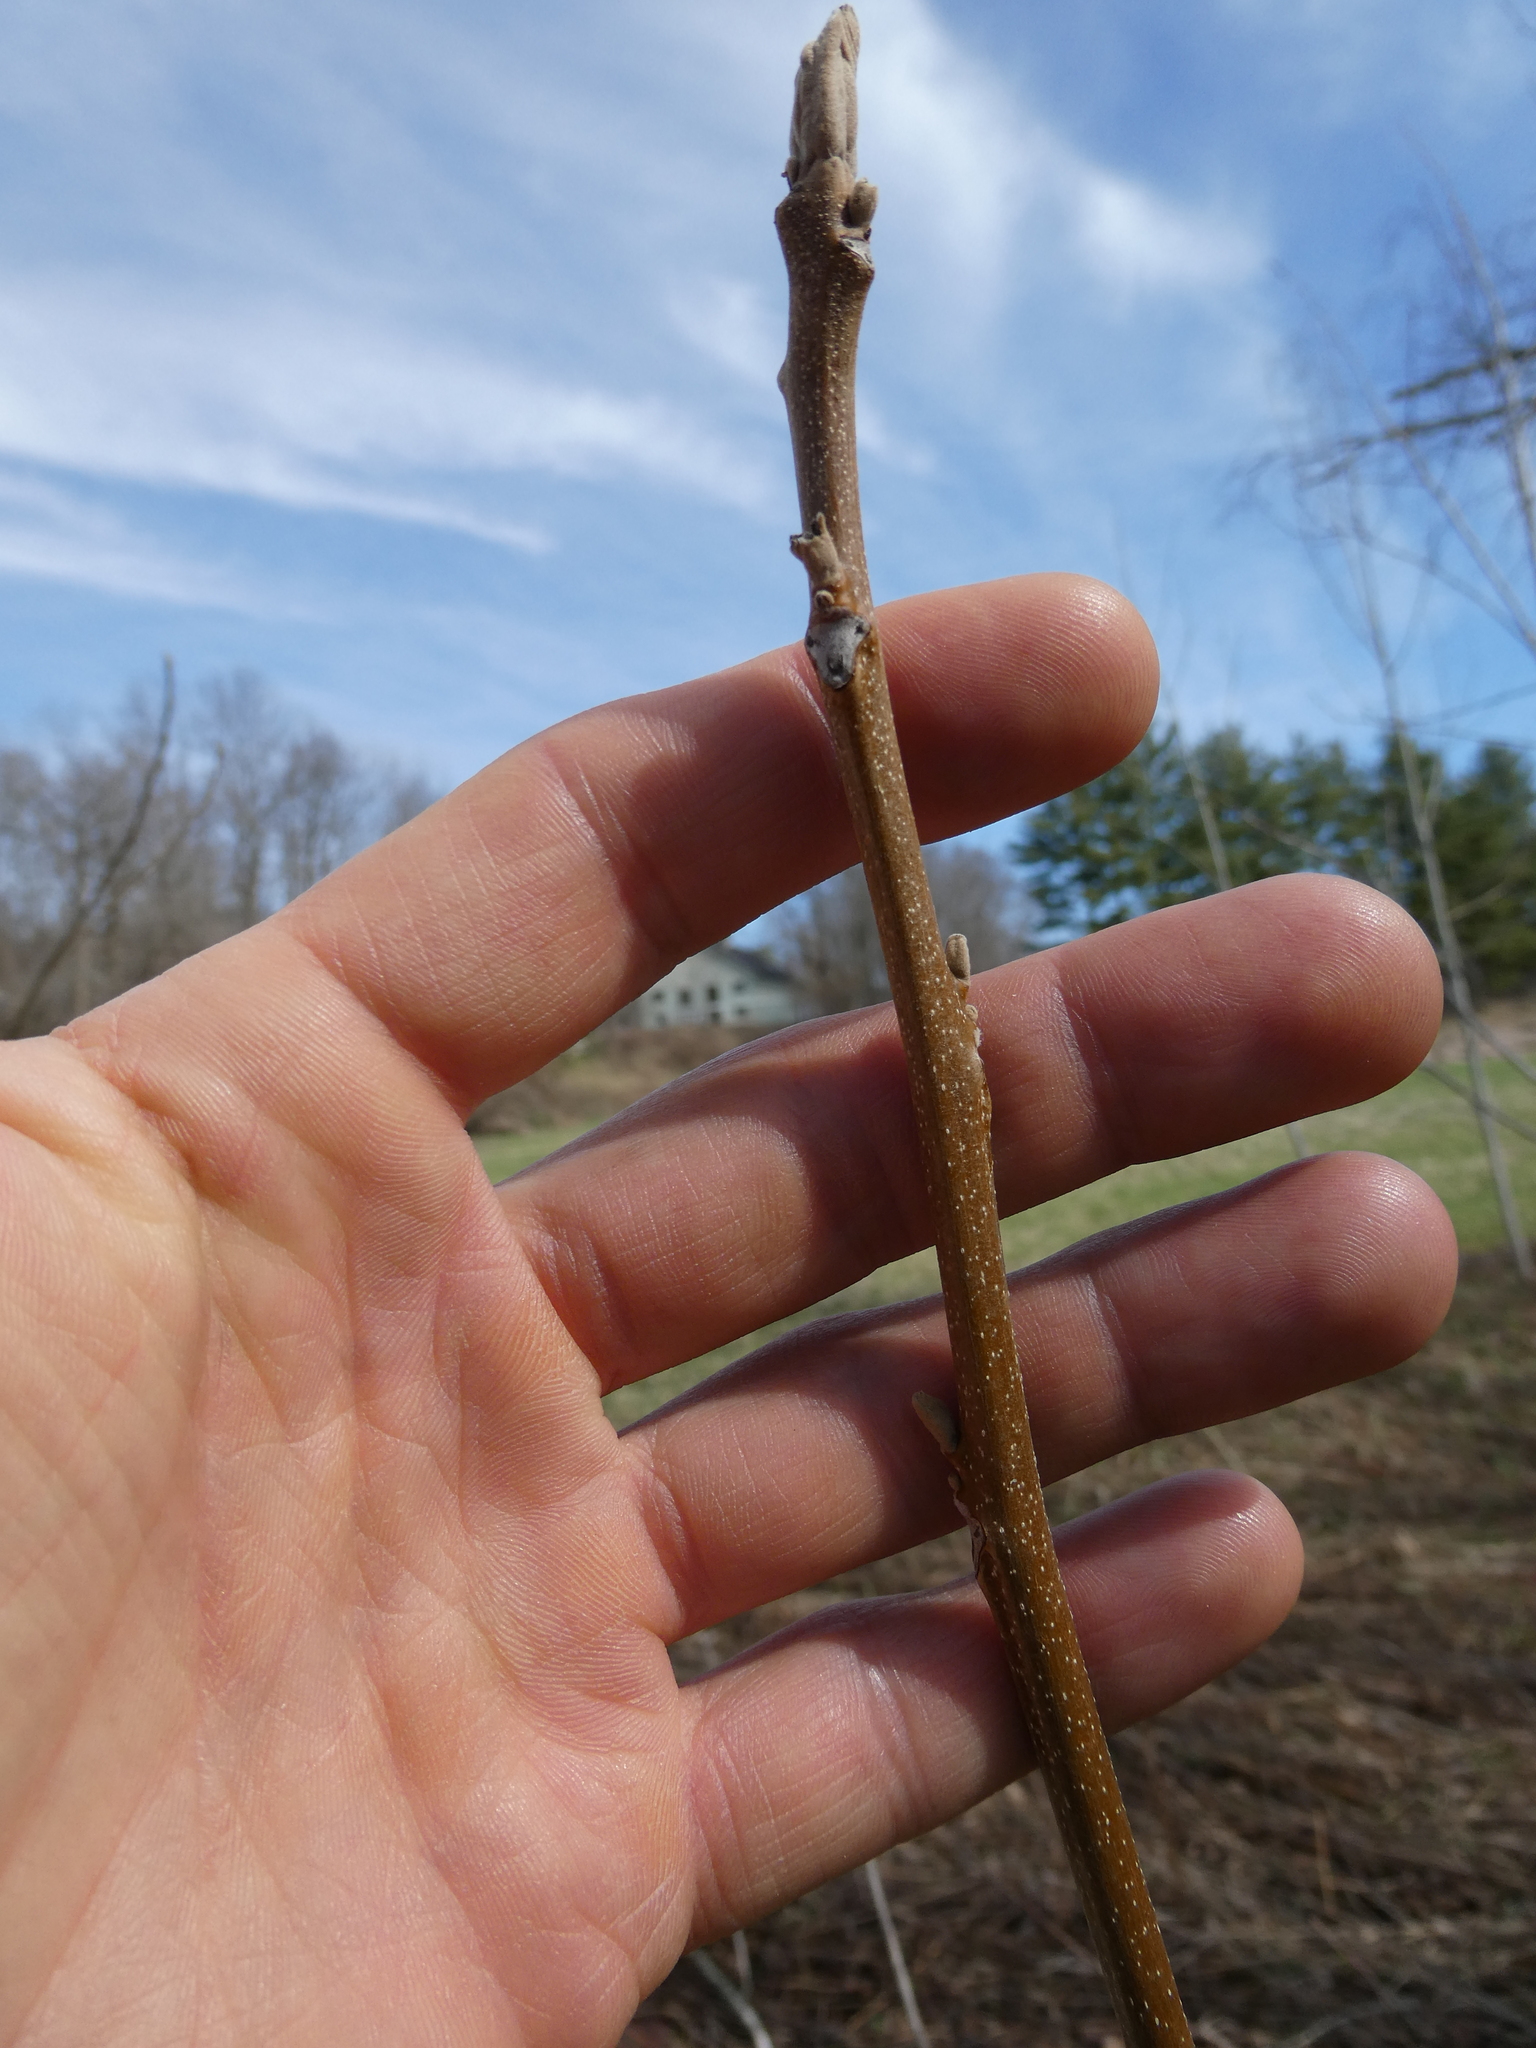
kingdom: Plantae
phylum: Tracheophyta
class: Magnoliopsida
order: Fagales
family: Juglandaceae
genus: Juglans
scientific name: Juglans cinerea
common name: Butternut
